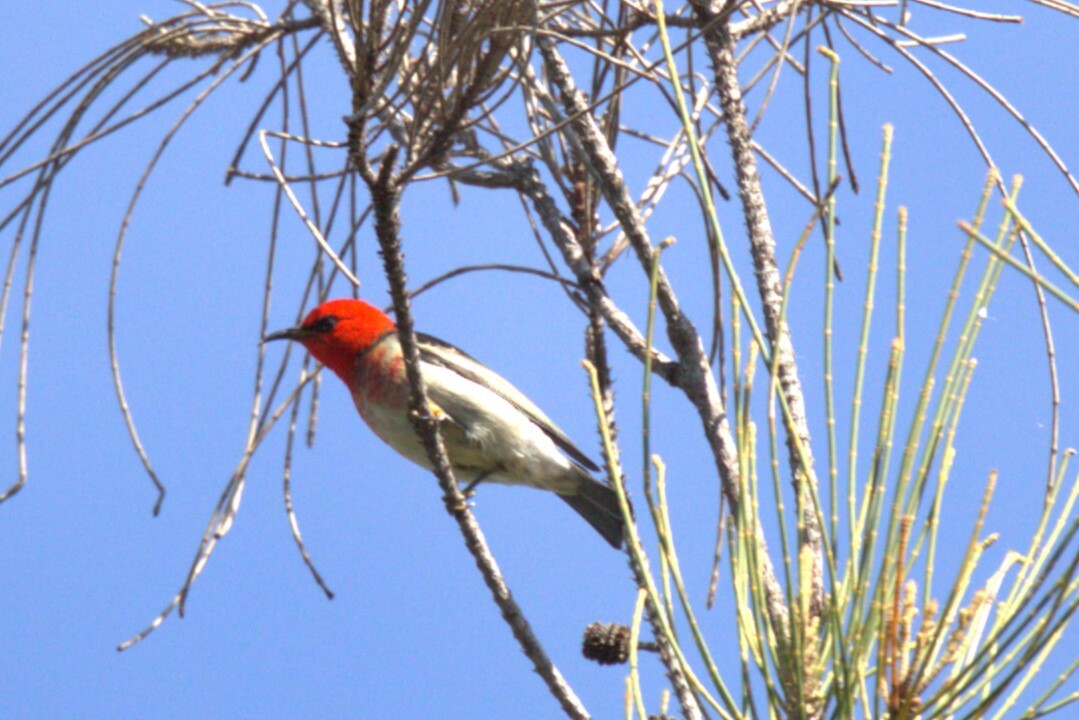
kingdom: Animalia
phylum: Chordata
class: Aves
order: Passeriformes
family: Meliphagidae
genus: Myzomela
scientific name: Myzomela sanguinolenta
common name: Scarlet myzomela
